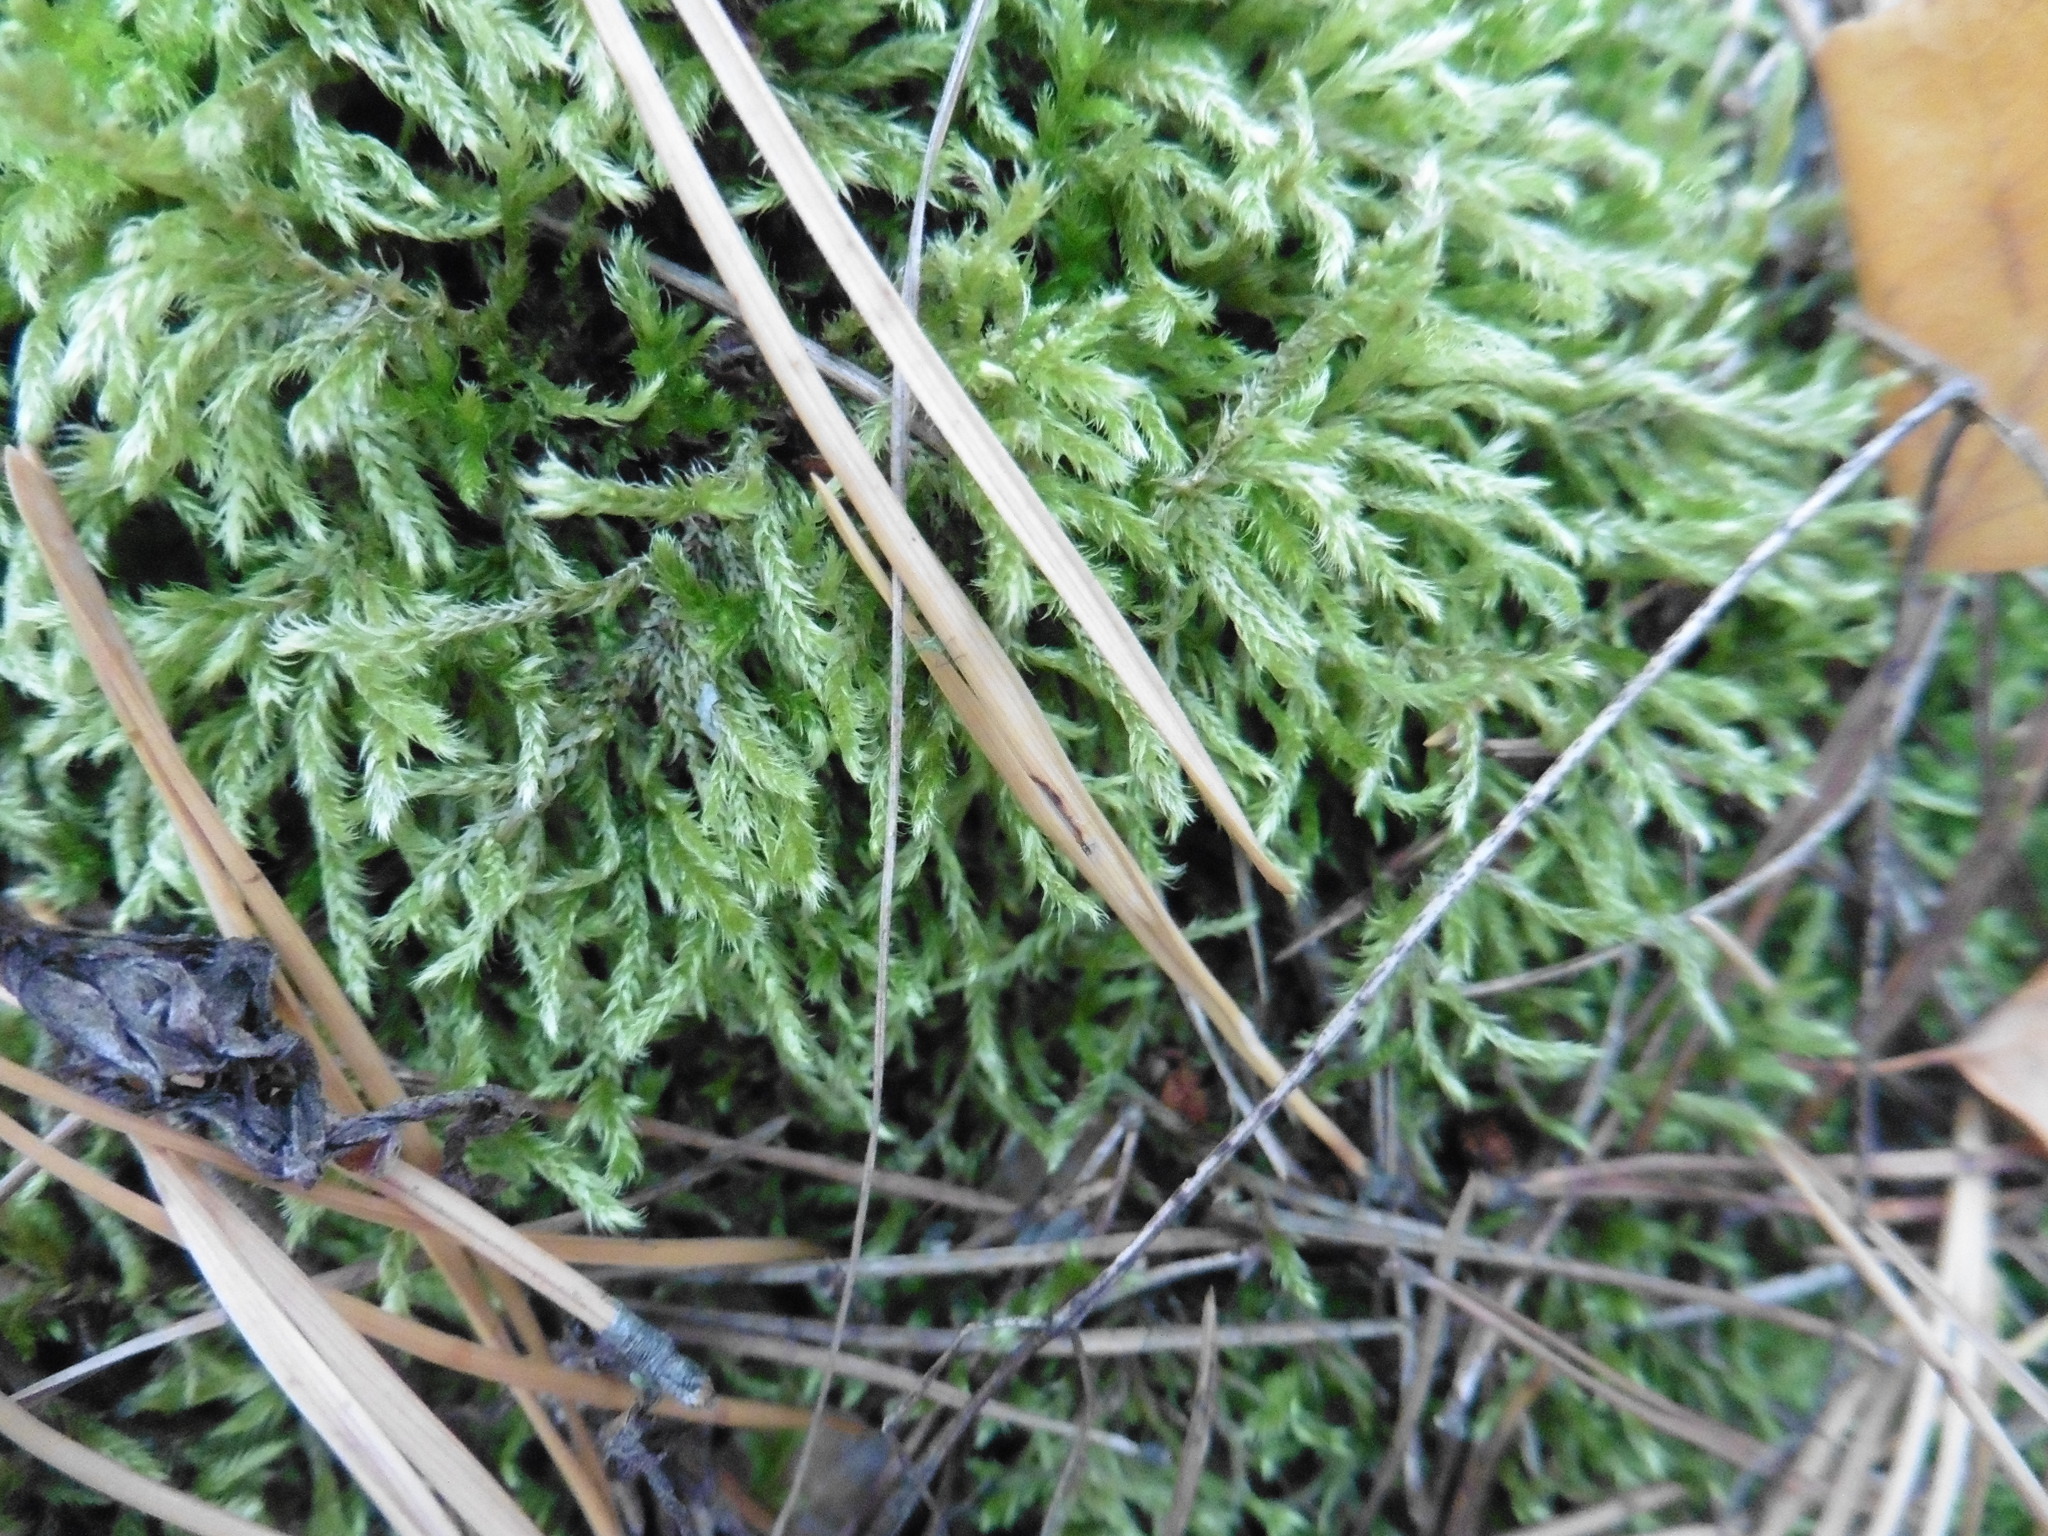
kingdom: Plantae
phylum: Bryophyta
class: Bryopsida
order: Hypnales
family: Hylocomiaceae
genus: Pleurozium
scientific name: Pleurozium schreberi
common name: Red-stemmed feather moss
